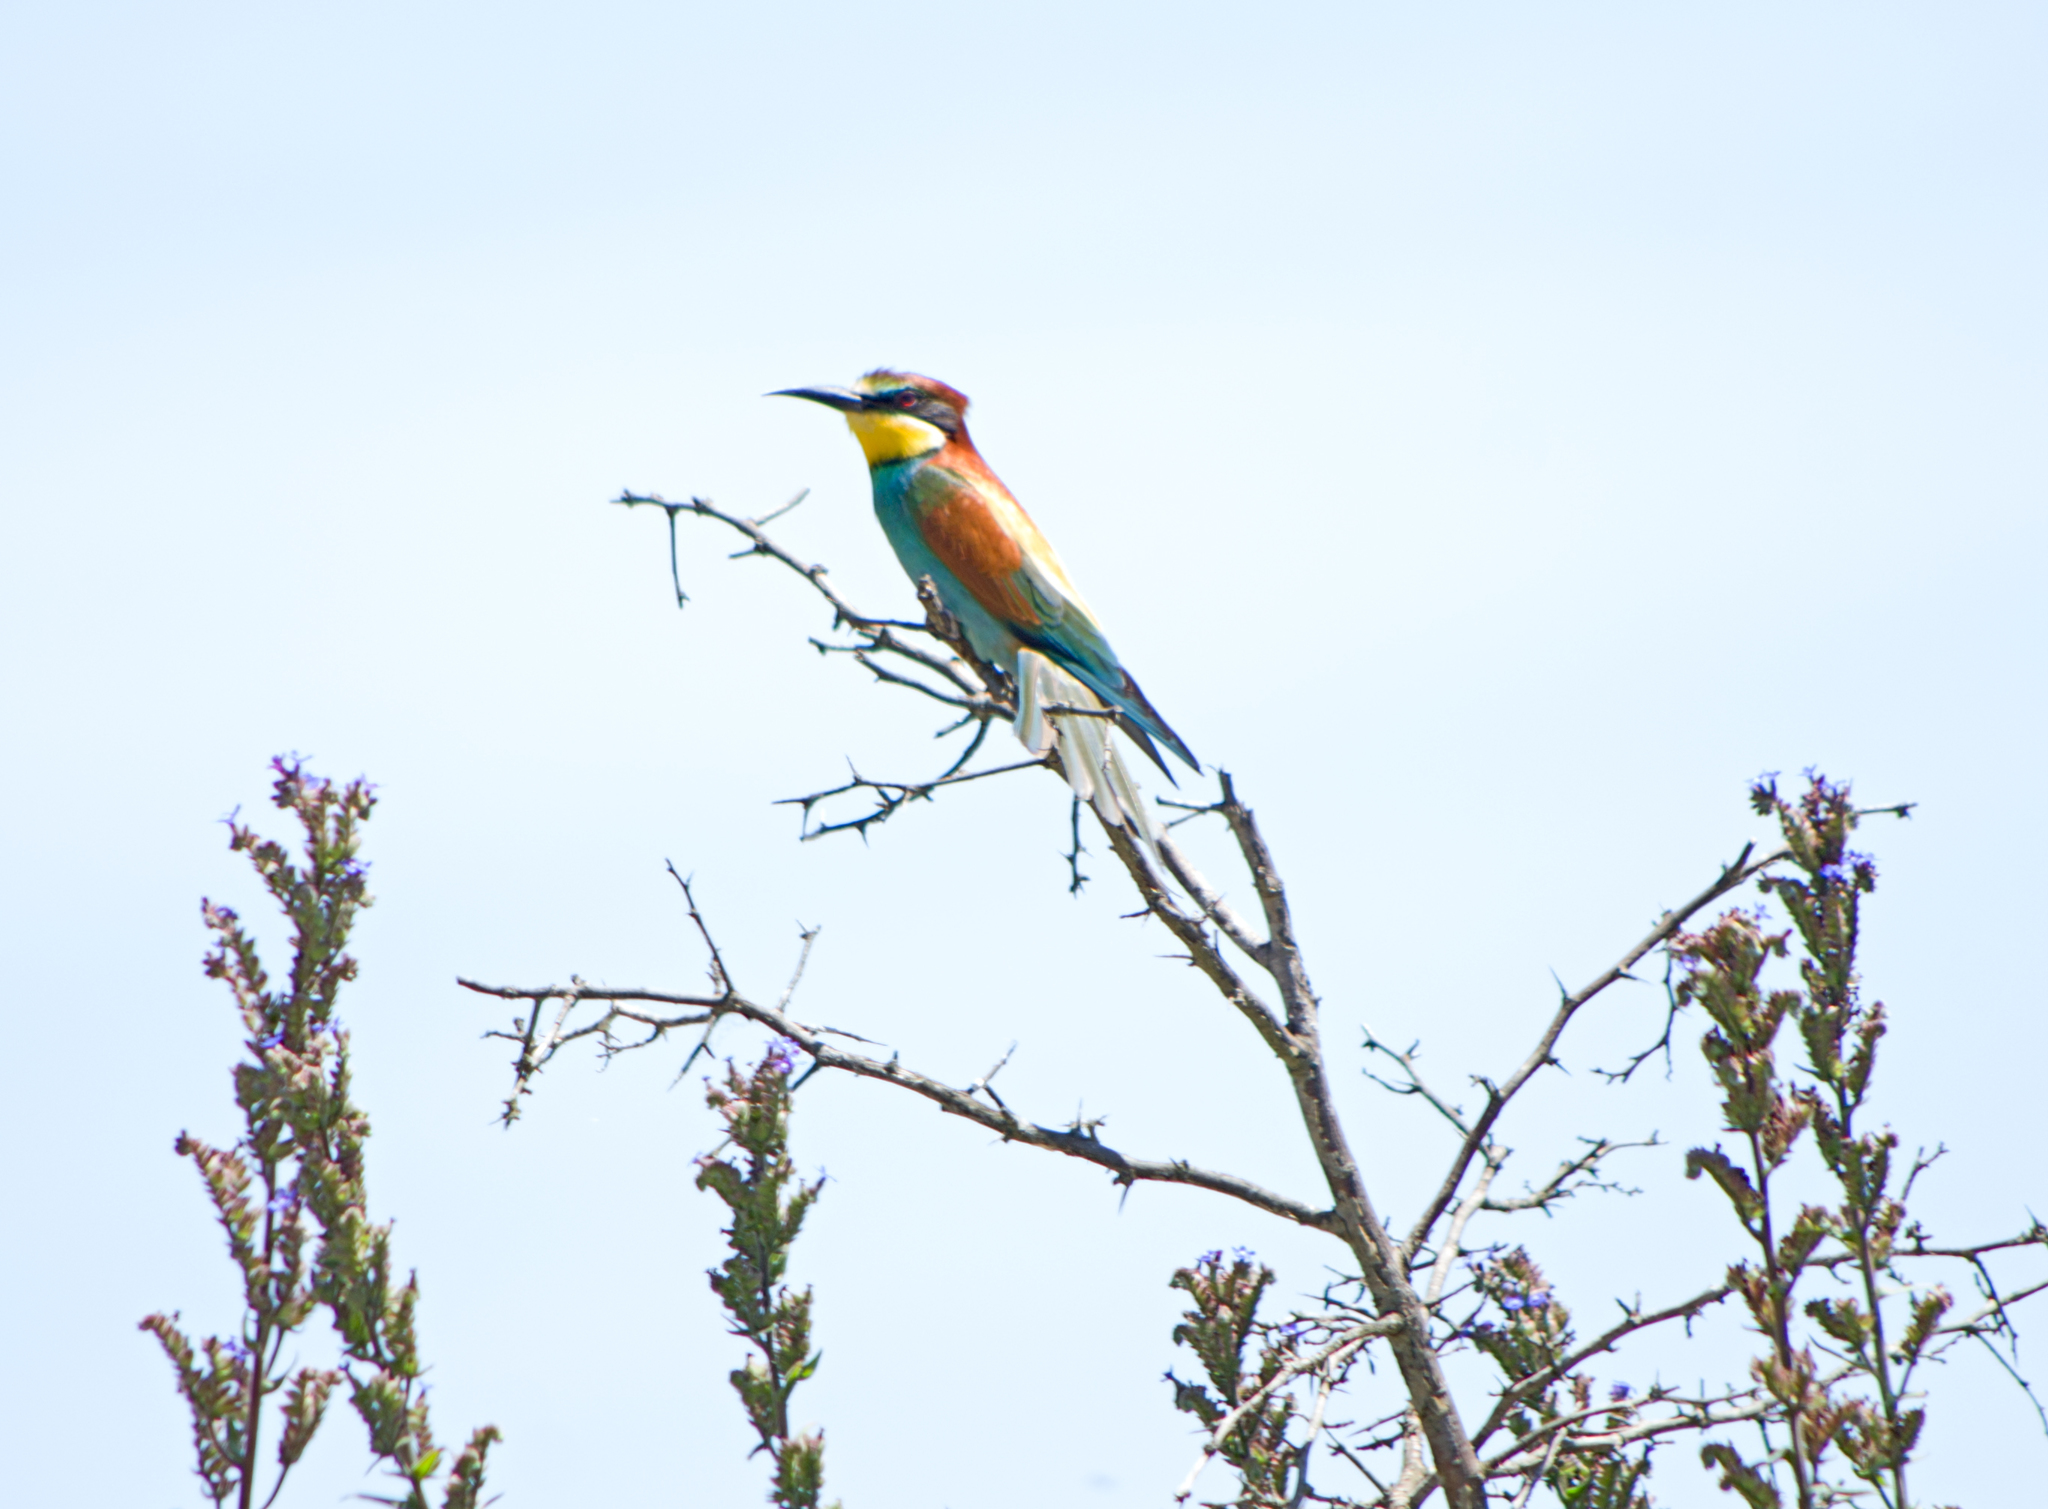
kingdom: Animalia
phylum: Chordata
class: Aves
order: Coraciiformes
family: Meropidae
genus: Merops
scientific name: Merops apiaster
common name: European bee-eater
